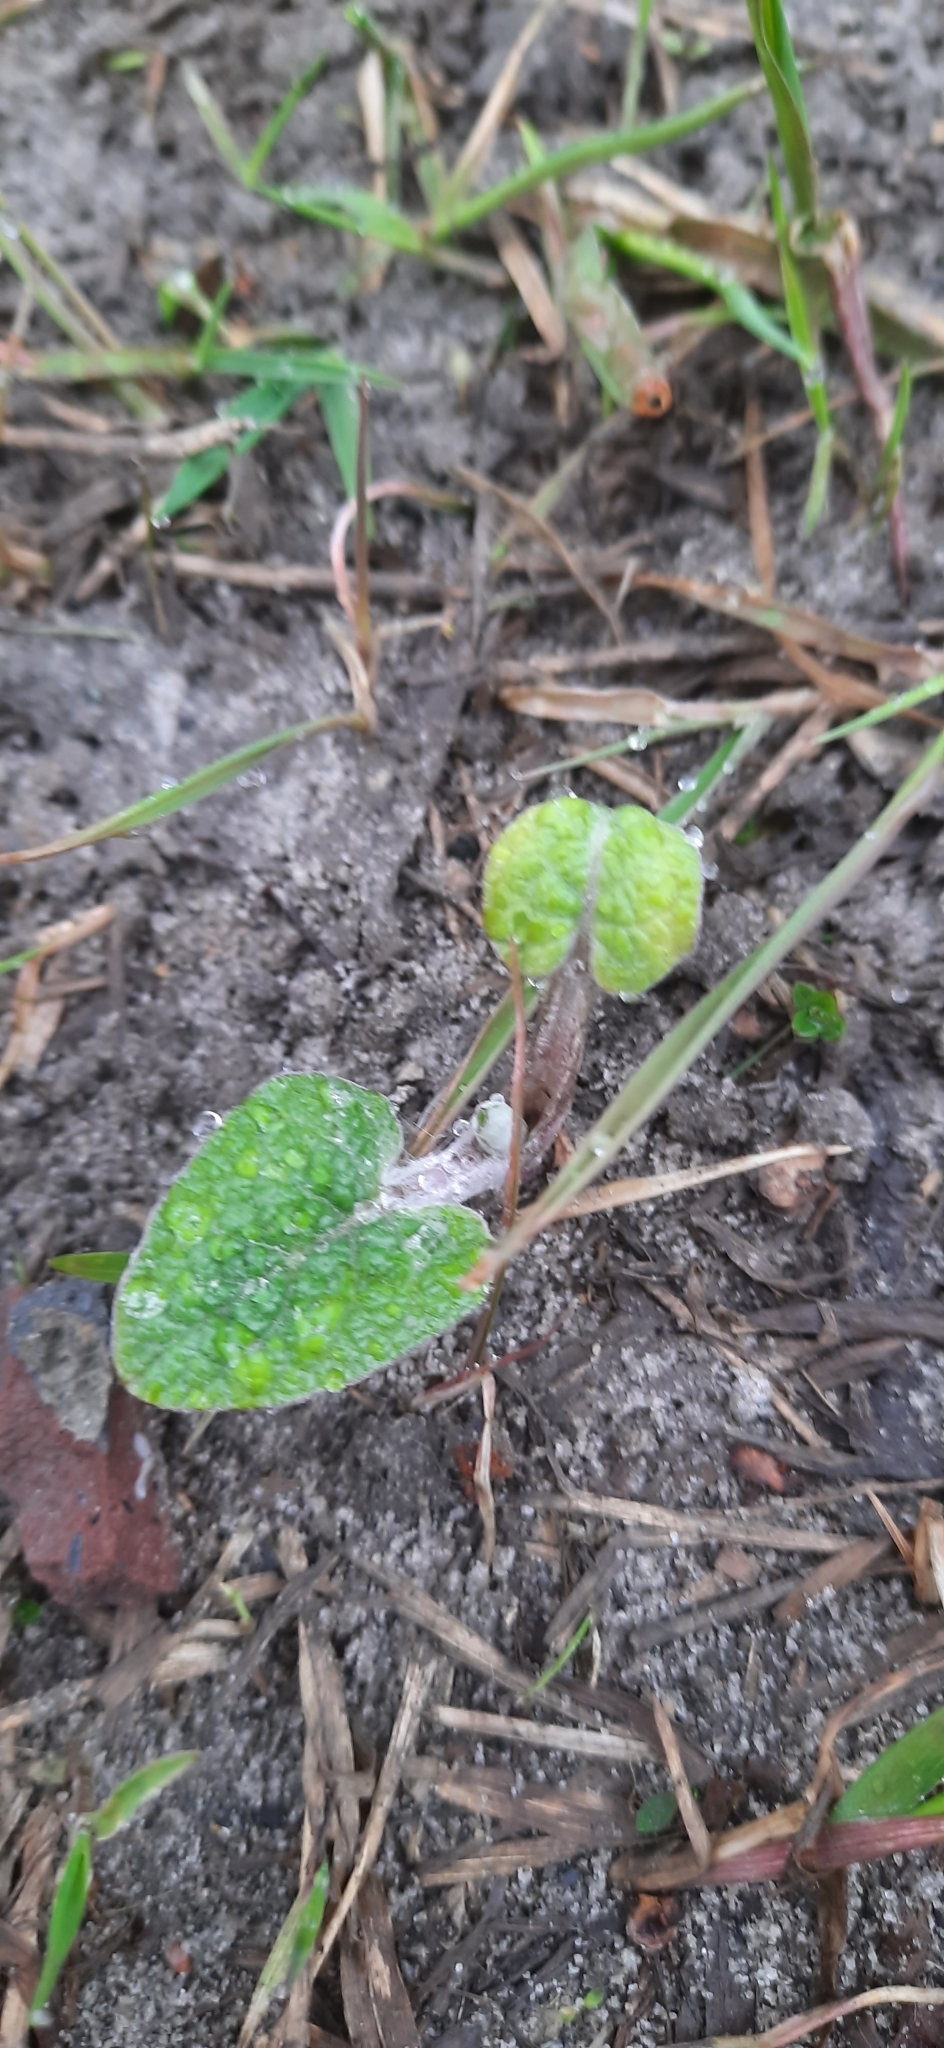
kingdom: Plantae
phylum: Tracheophyta
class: Magnoliopsida
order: Asterales
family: Asteraceae
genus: Arctium
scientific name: Arctium tomentosum
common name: Woolly burdock
